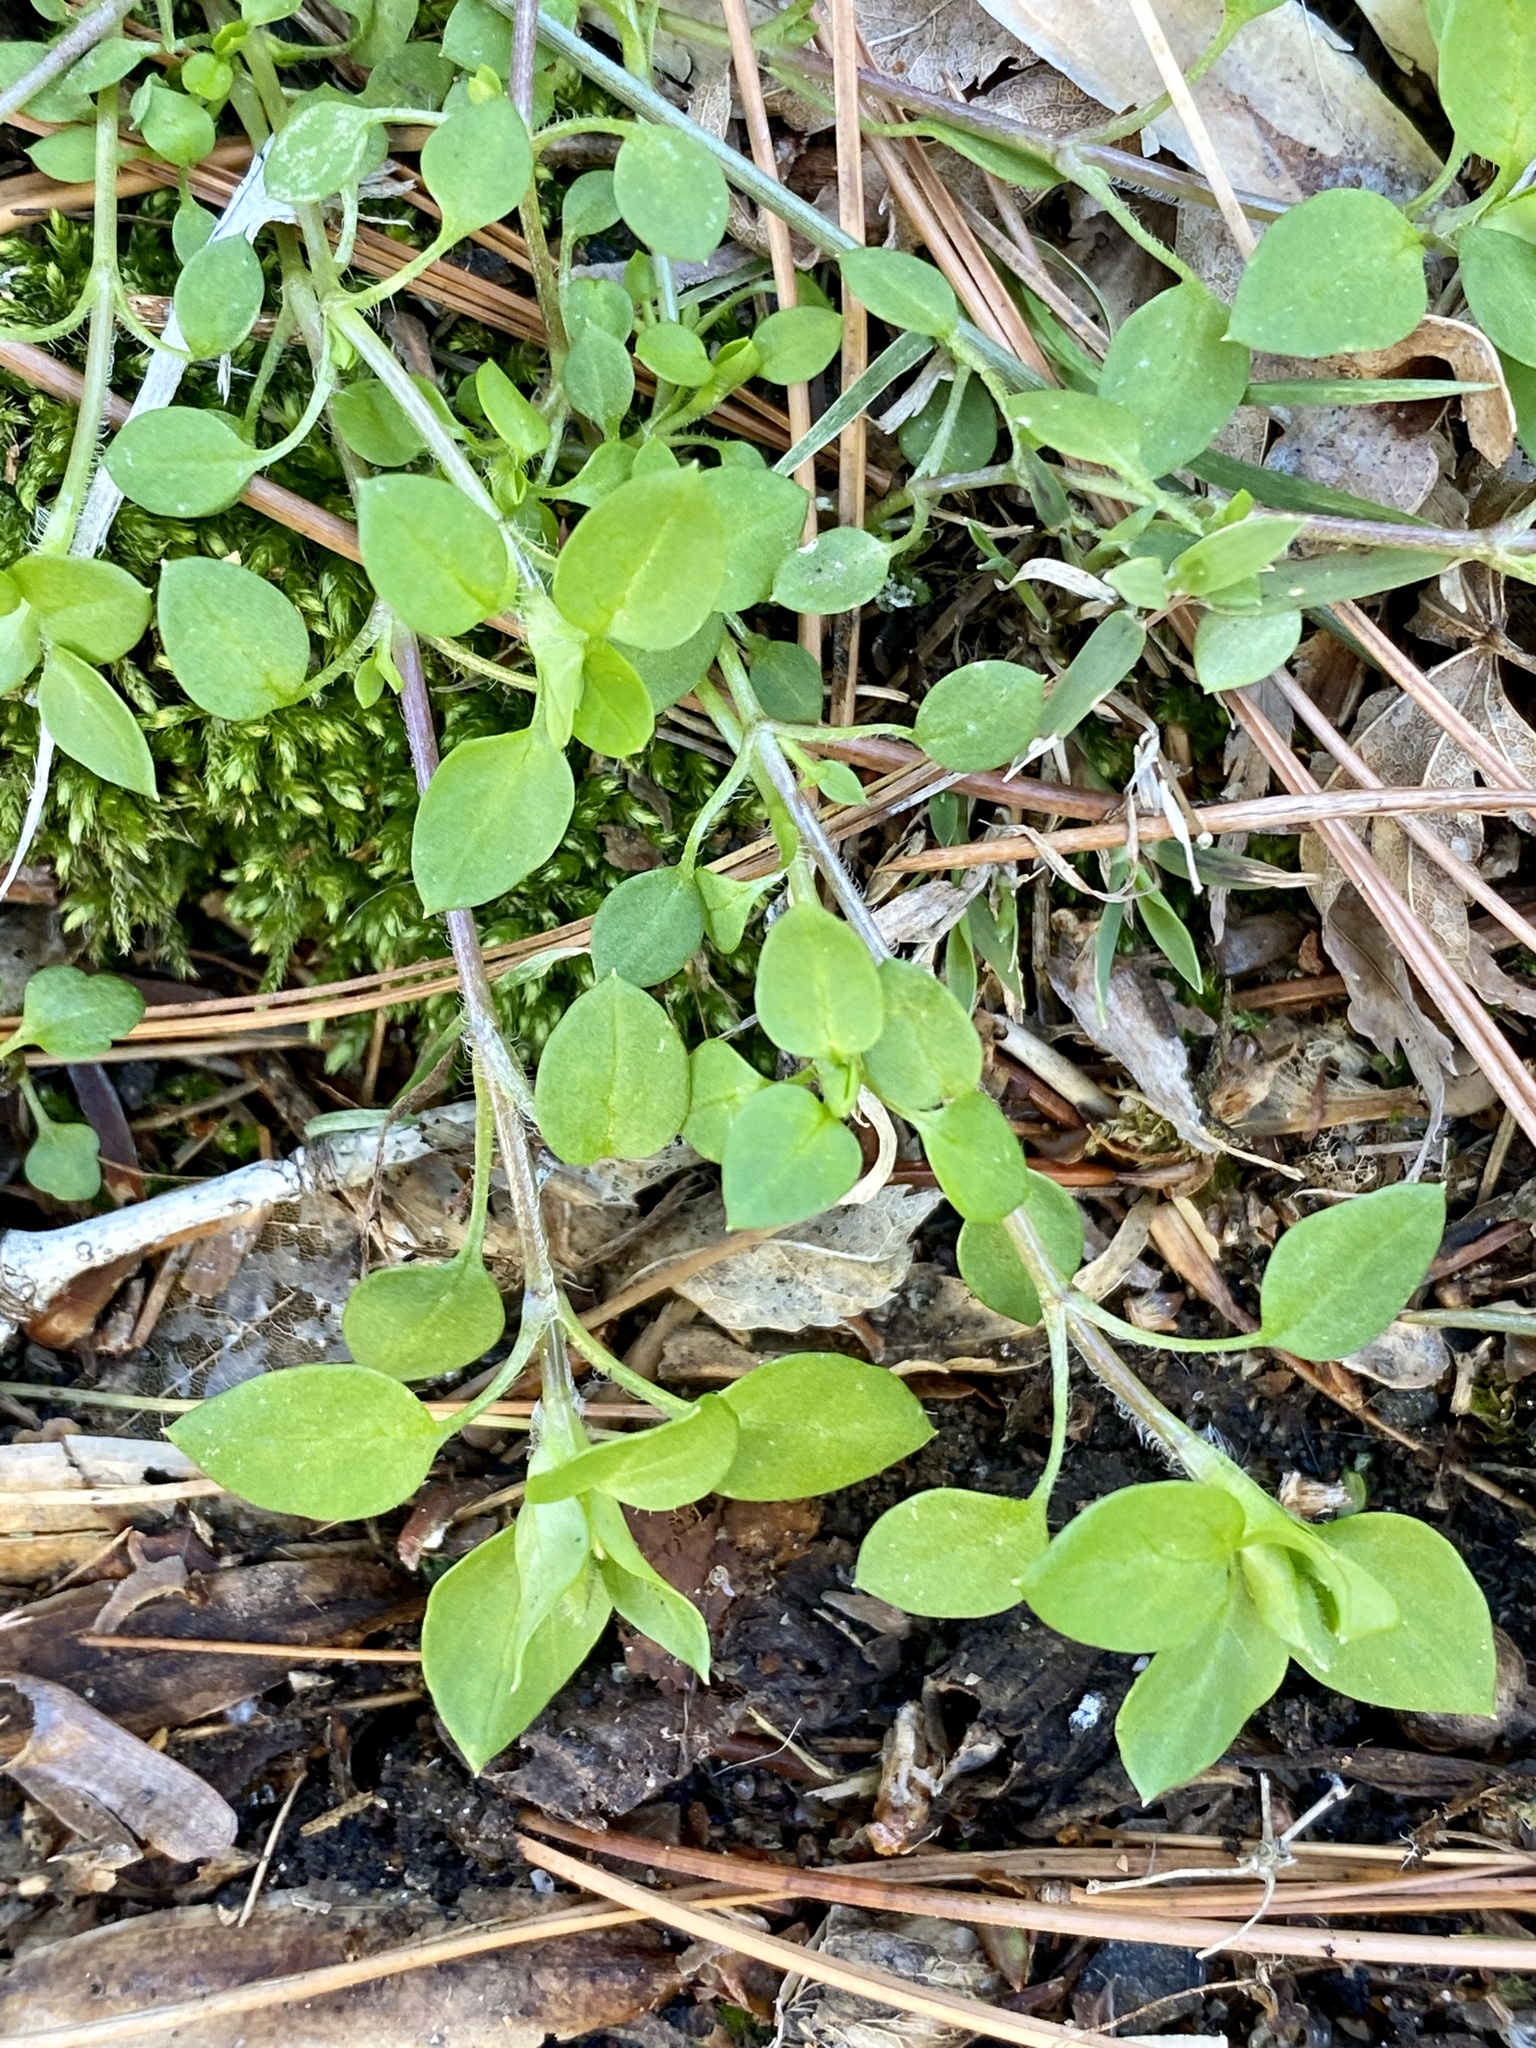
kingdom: Plantae
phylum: Tracheophyta
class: Magnoliopsida
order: Caryophyllales
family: Caryophyllaceae
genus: Stellaria
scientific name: Stellaria media
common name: Common chickweed
